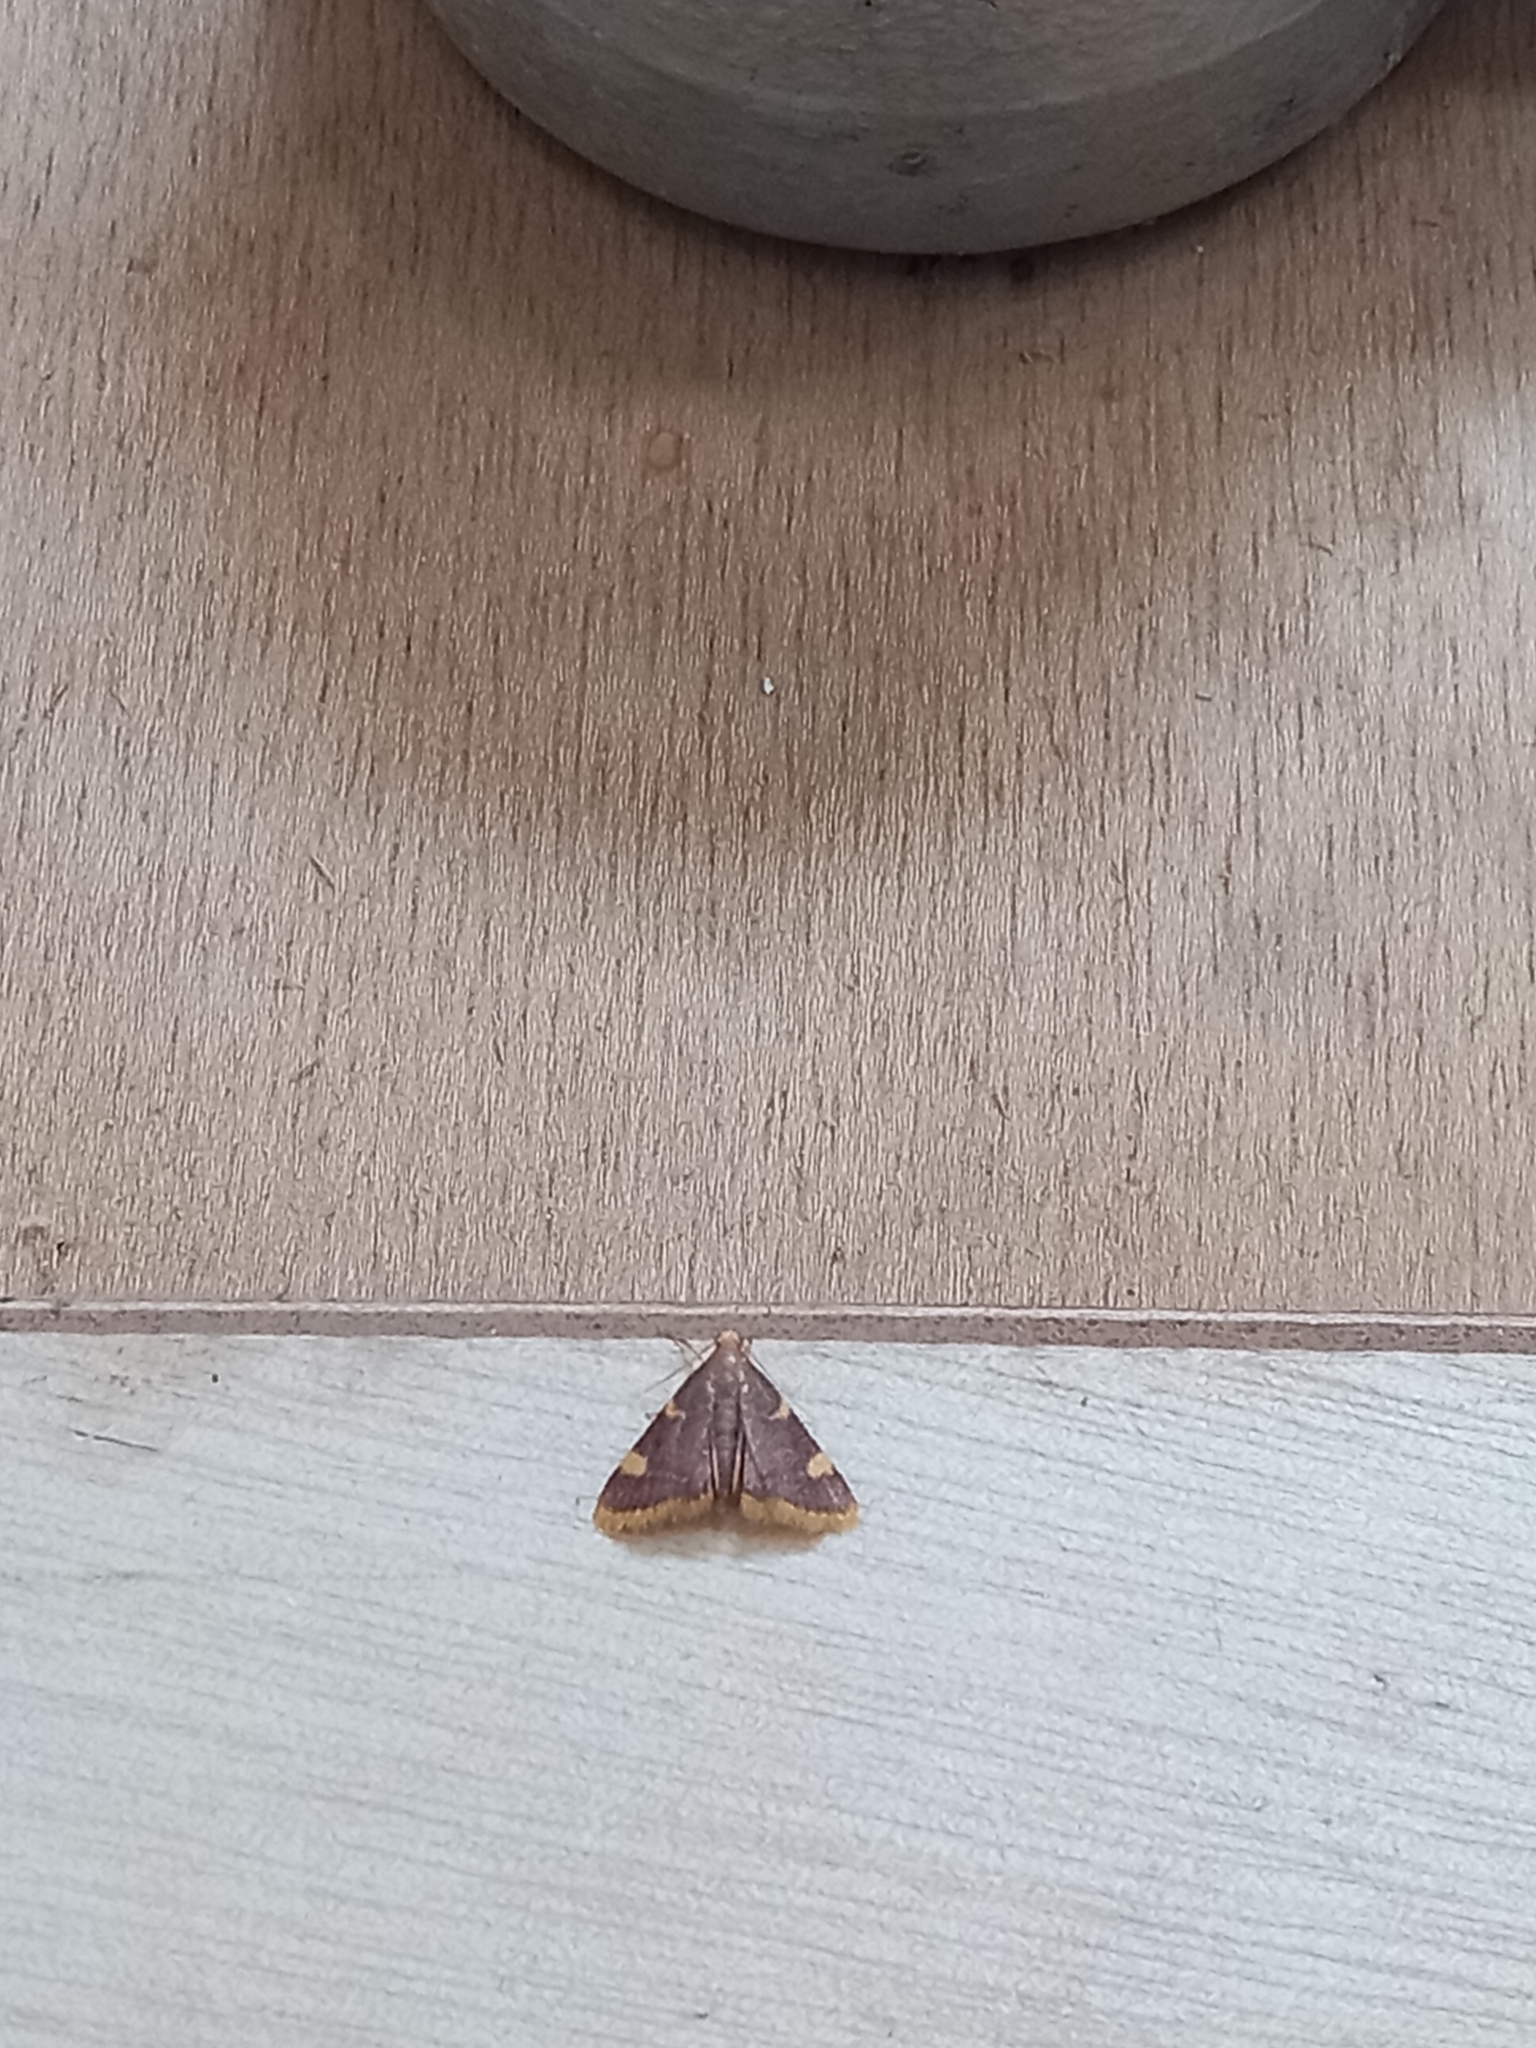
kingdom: Animalia
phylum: Arthropoda
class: Insecta
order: Lepidoptera
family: Pyralidae
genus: Hypsopygia
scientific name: Hypsopygia costalis
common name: Gold triangle
